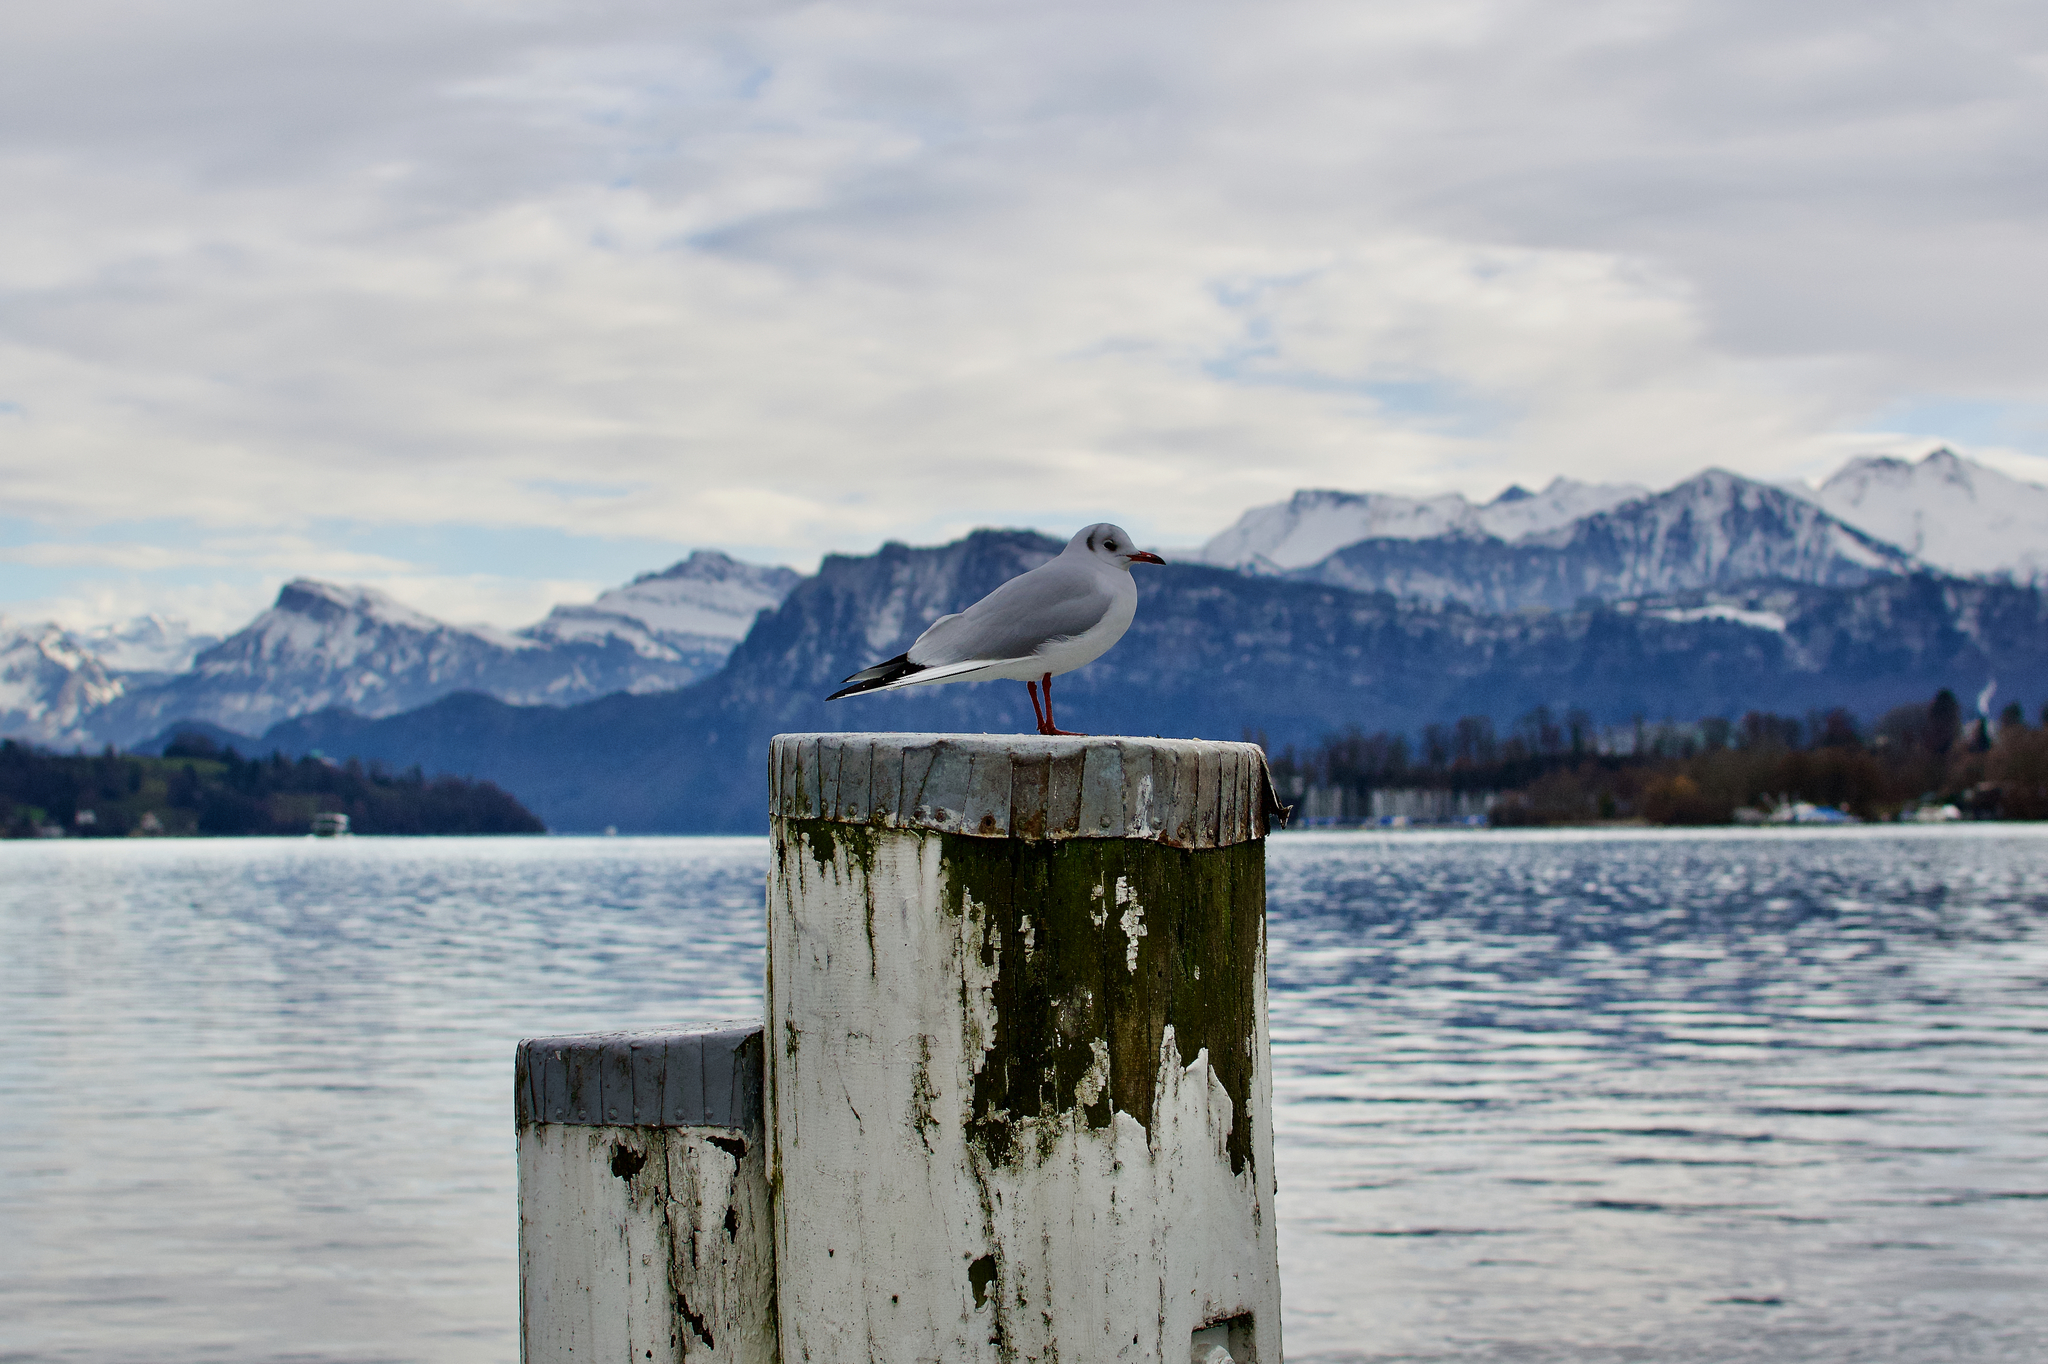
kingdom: Animalia
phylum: Chordata
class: Aves
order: Charadriiformes
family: Laridae
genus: Chroicocephalus
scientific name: Chroicocephalus ridibundus
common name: Black-headed gull
